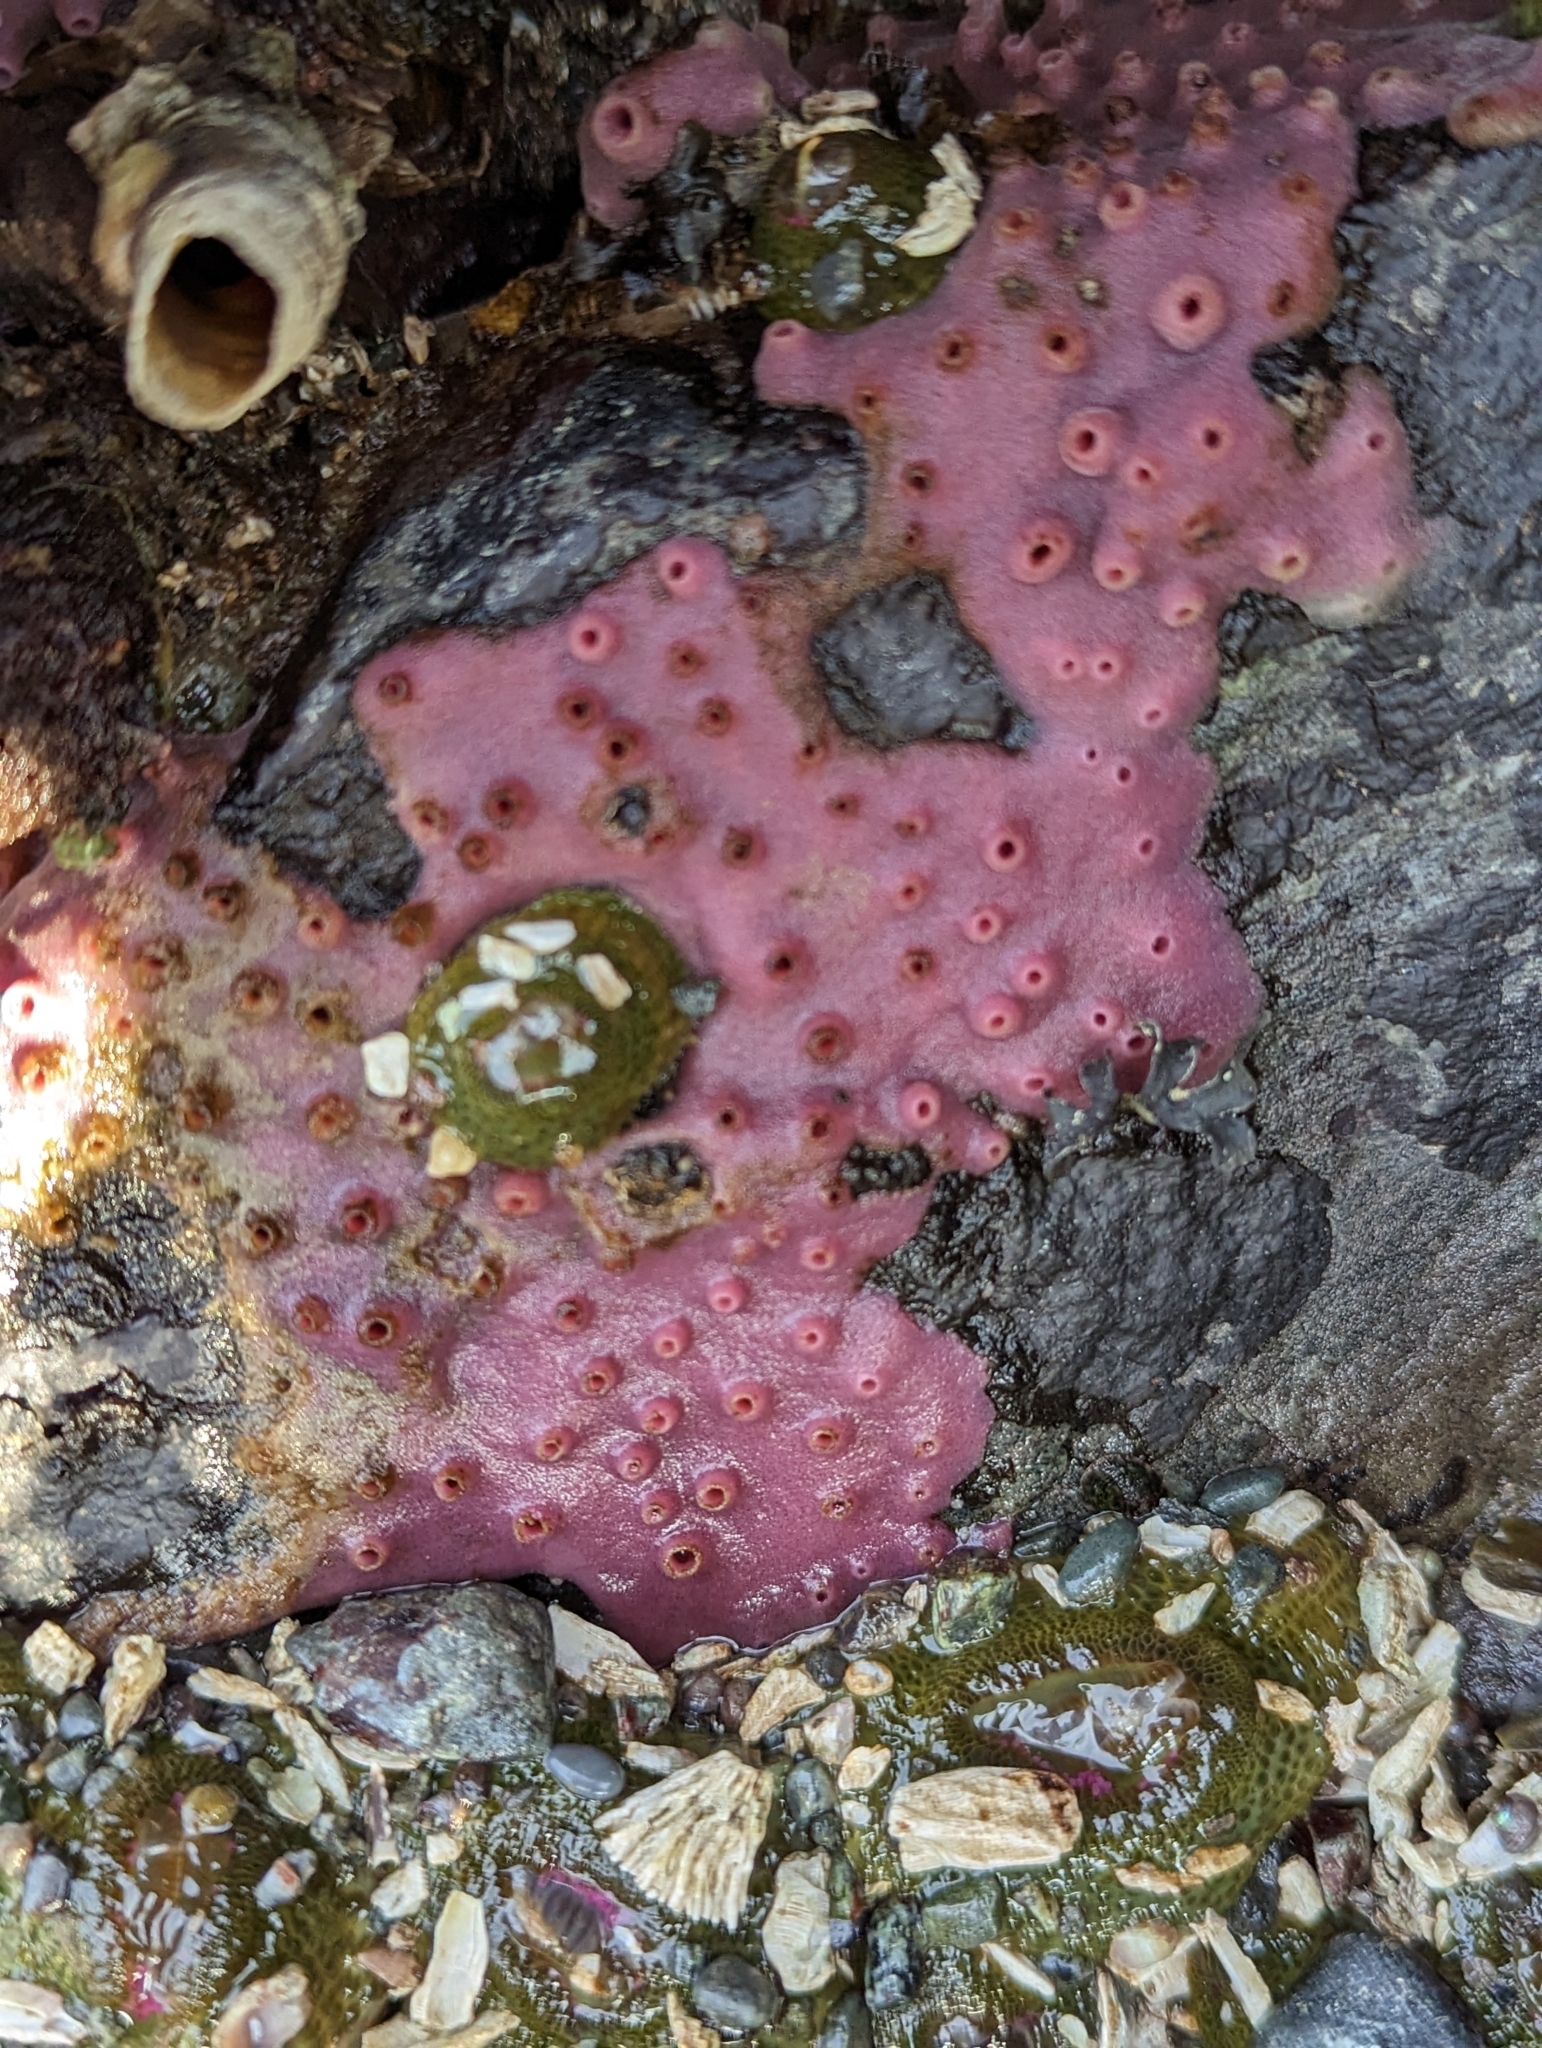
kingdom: Animalia
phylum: Porifera
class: Demospongiae
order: Haplosclerida
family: Chalinidae
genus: Haliclona
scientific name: Haliclona
